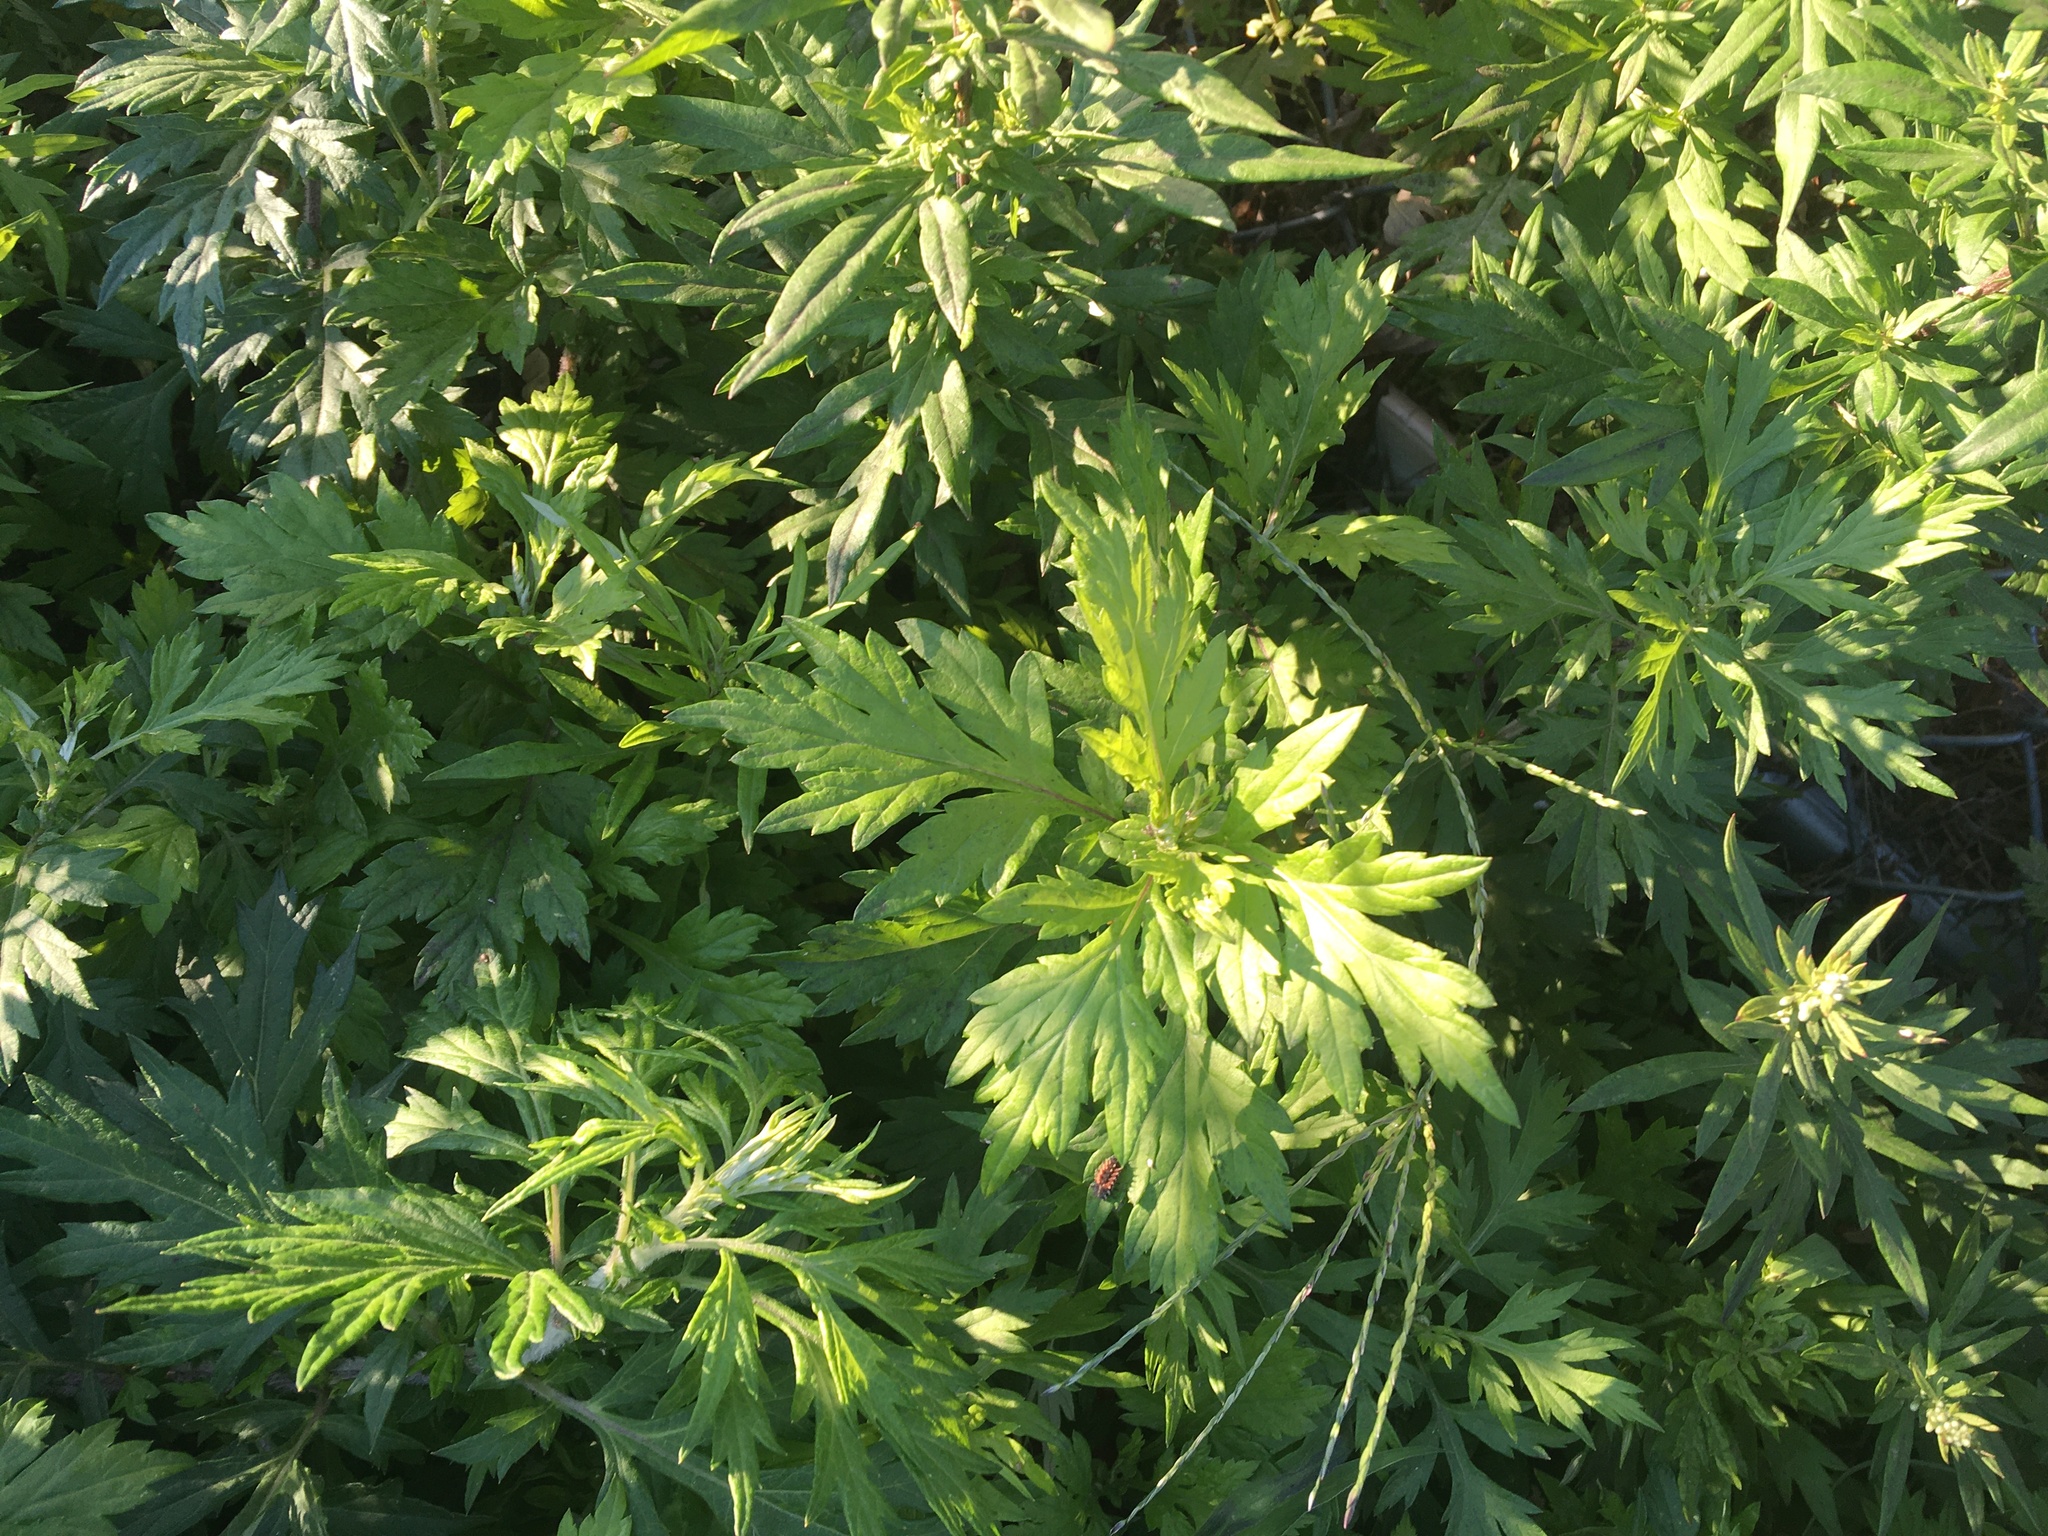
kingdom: Plantae
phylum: Tracheophyta
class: Magnoliopsida
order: Asterales
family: Asteraceae
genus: Artemisia
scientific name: Artemisia vulgaris
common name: Mugwort
